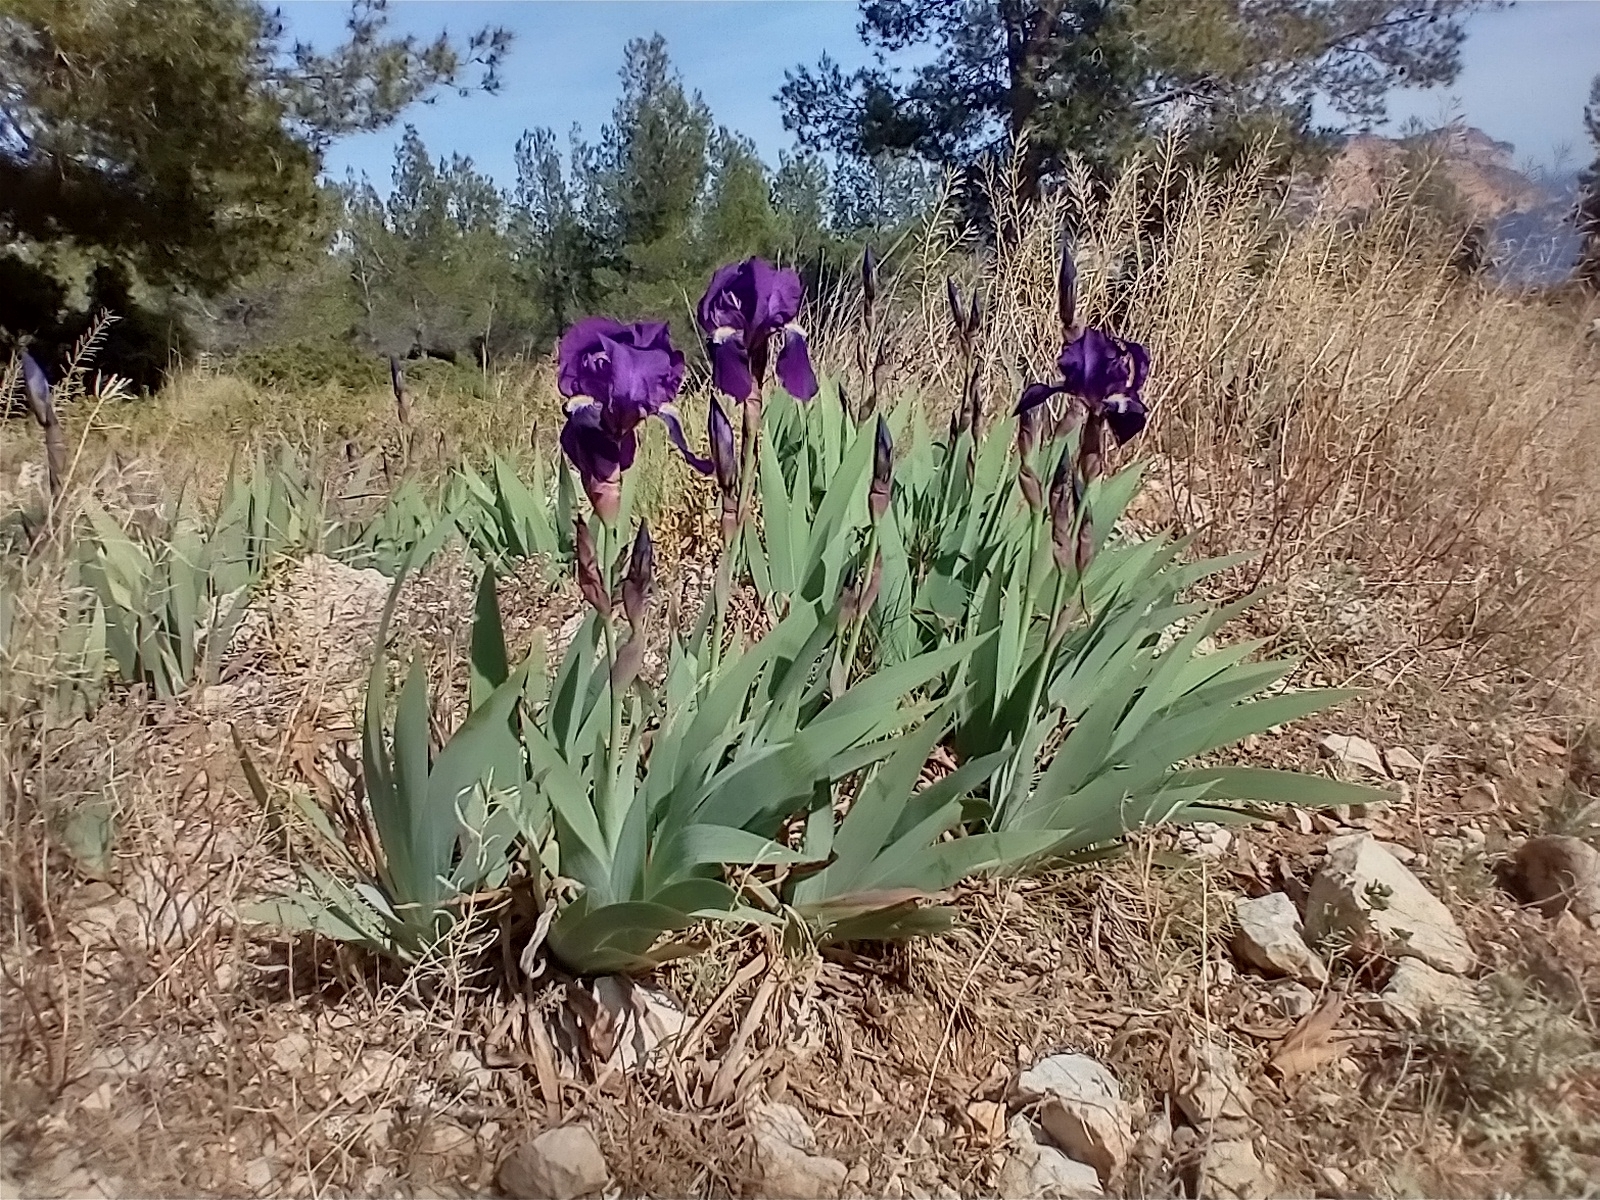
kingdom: Plantae
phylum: Tracheophyta
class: Liliopsida
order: Asparagales
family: Iridaceae
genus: Iris
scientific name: Iris germanica
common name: German iris
